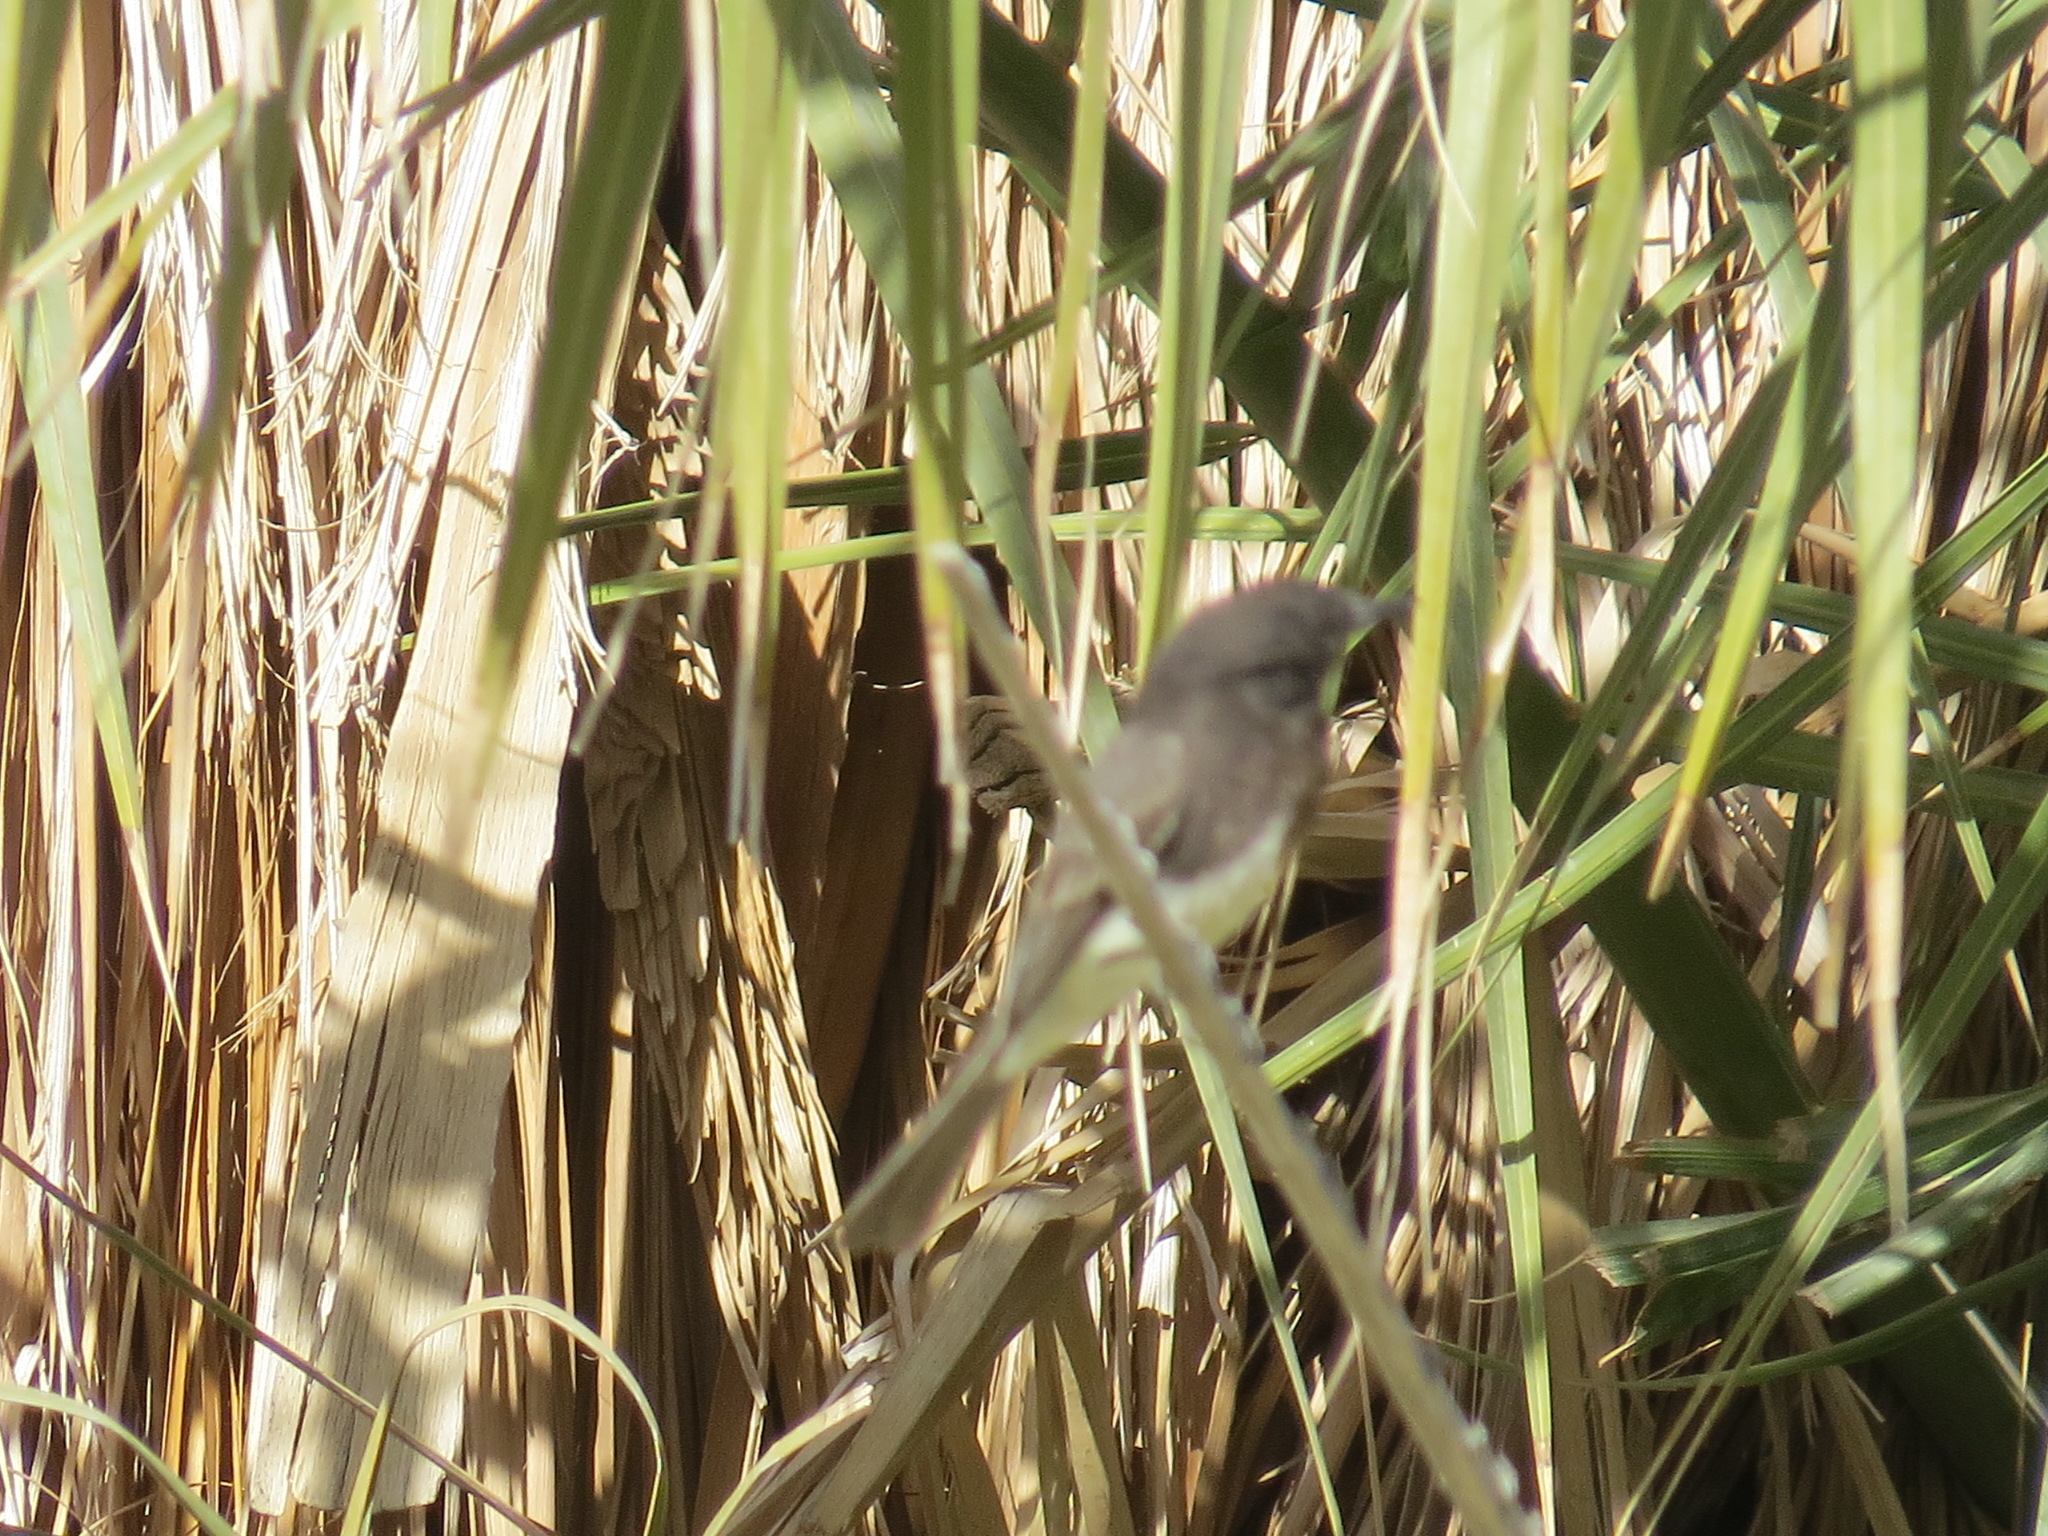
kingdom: Animalia
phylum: Chordata
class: Aves
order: Passeriformes
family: Tyrannidae
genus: Sayornis
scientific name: Sayornis nigricans
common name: Black phoebe
